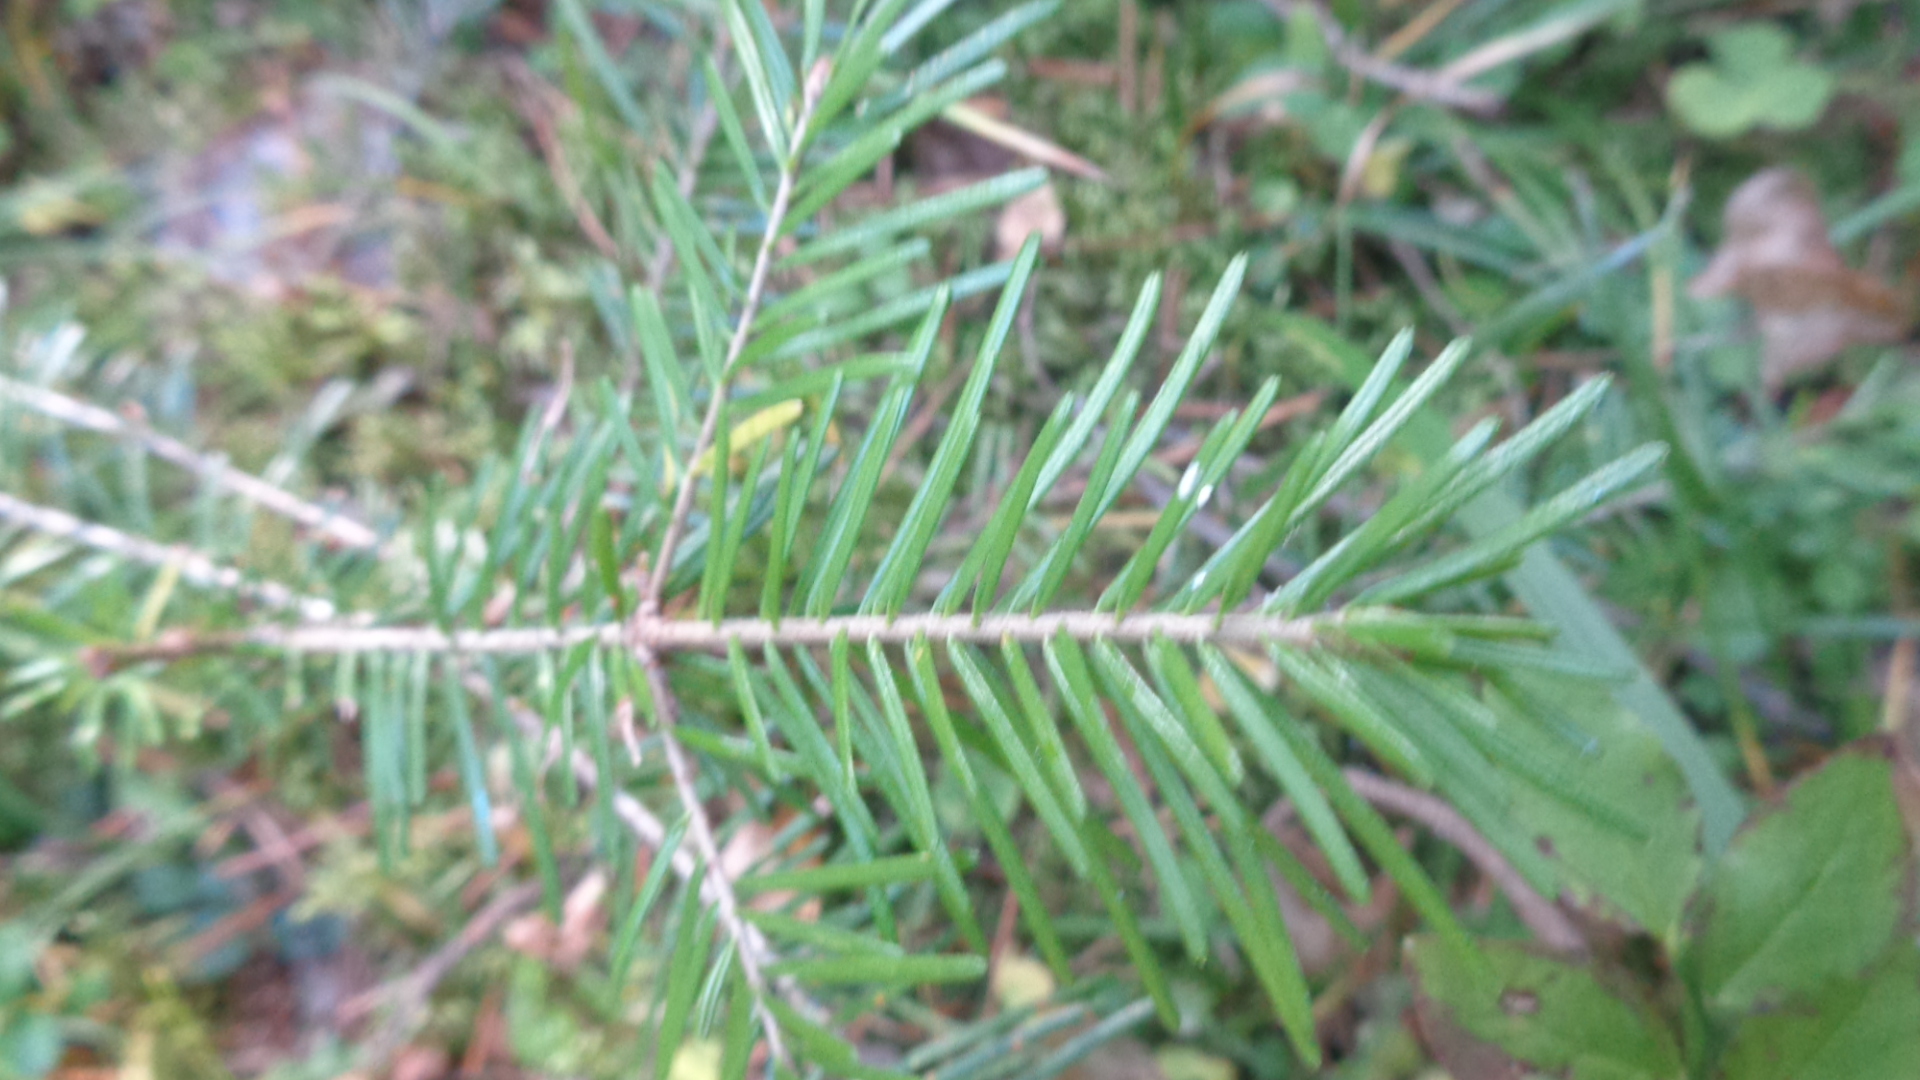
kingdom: Plantae
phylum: Tracheophyta
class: Pinopsida
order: Pinales
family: Pinaceae
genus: Abies
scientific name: Abies sibirica
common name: Siberian fir
